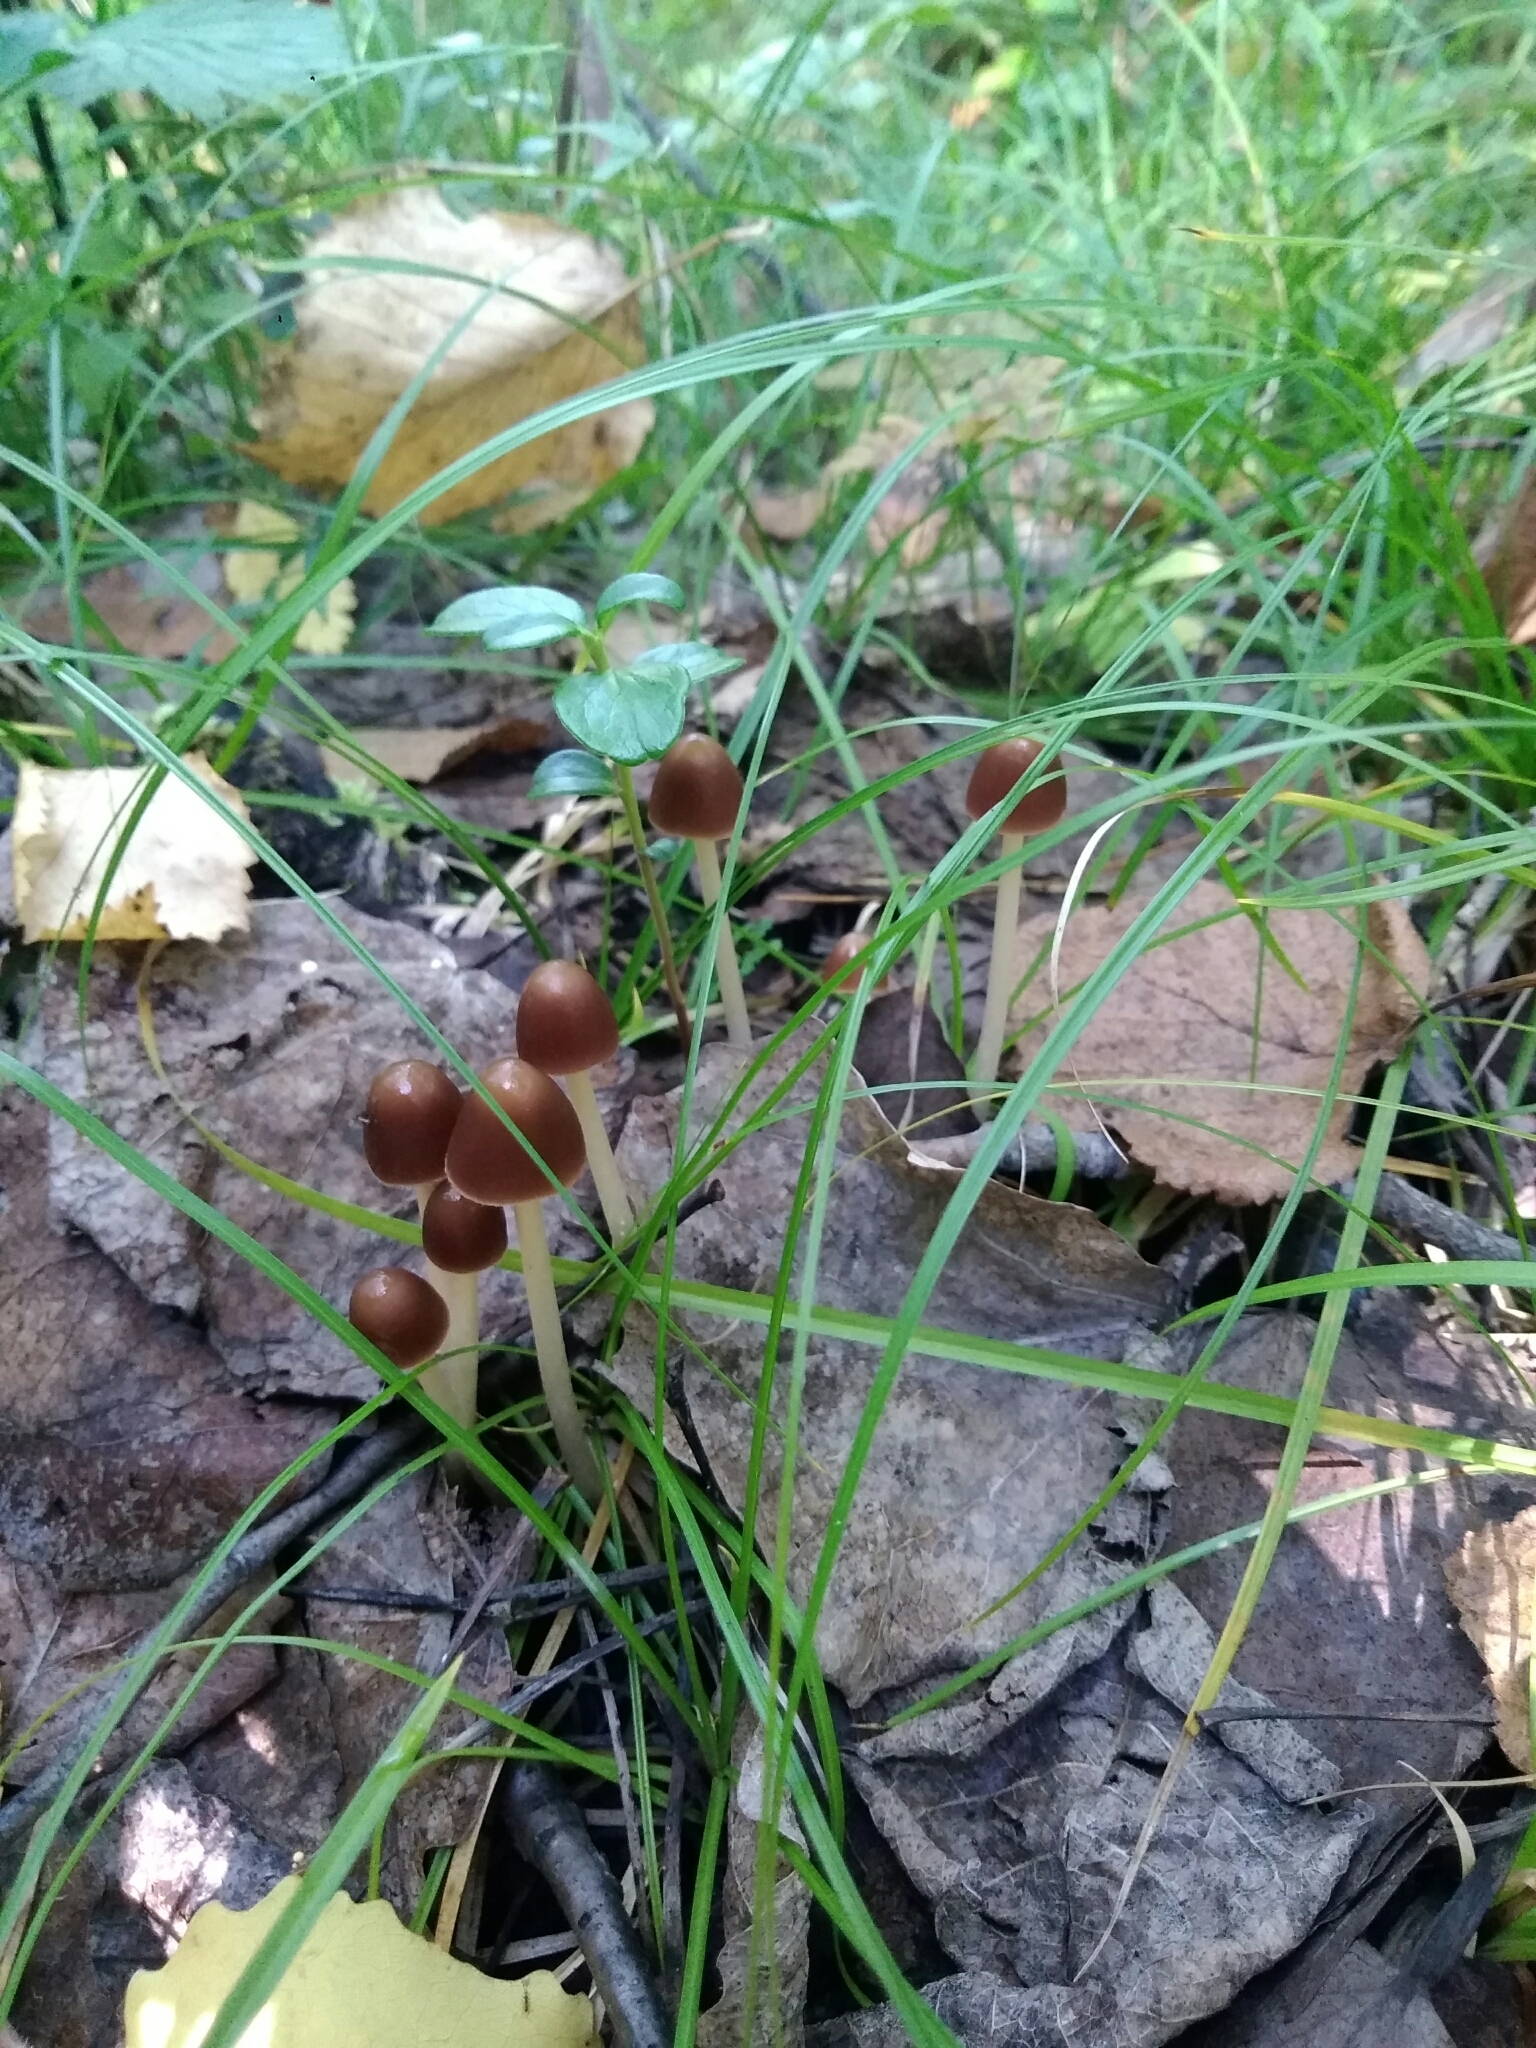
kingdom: Fungi
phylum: Basidiomycota
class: Agaricomycetes
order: Agaricales
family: Psathyrellaceae
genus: Parasola
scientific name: Parasola conopilea
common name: Conical brittlestem
